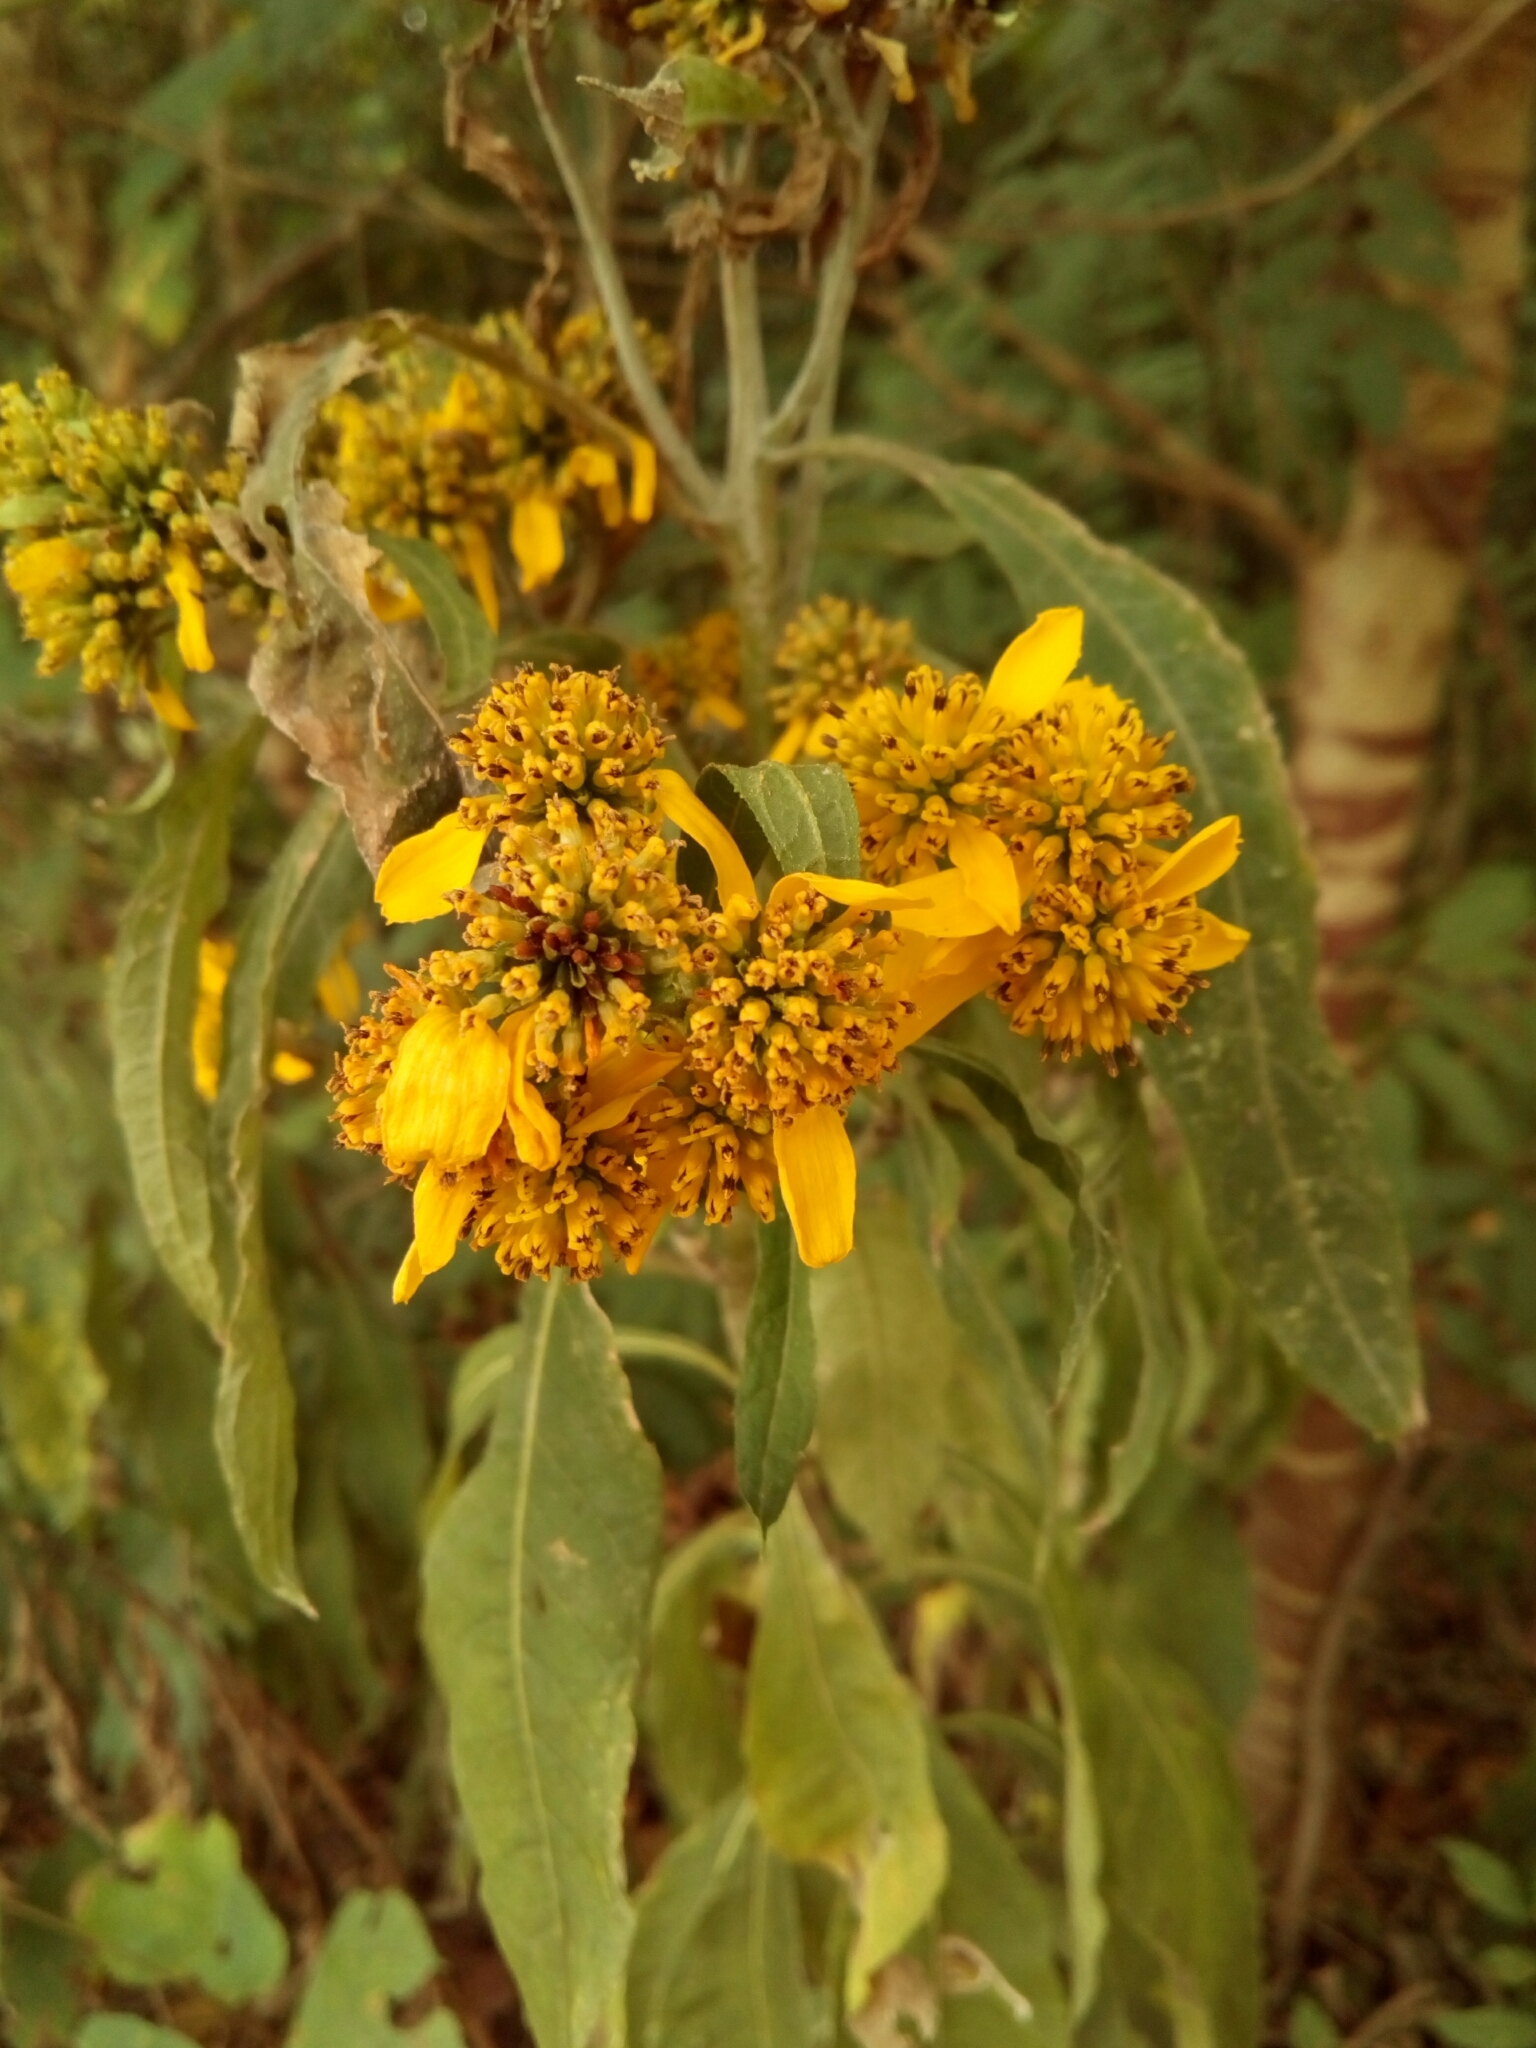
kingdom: Plantae
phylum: Tracheophyta
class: Magnoliopsida
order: Asterales
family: Asteraceae
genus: Verbesina
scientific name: Verbesina alternifolia
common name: Wingstem
